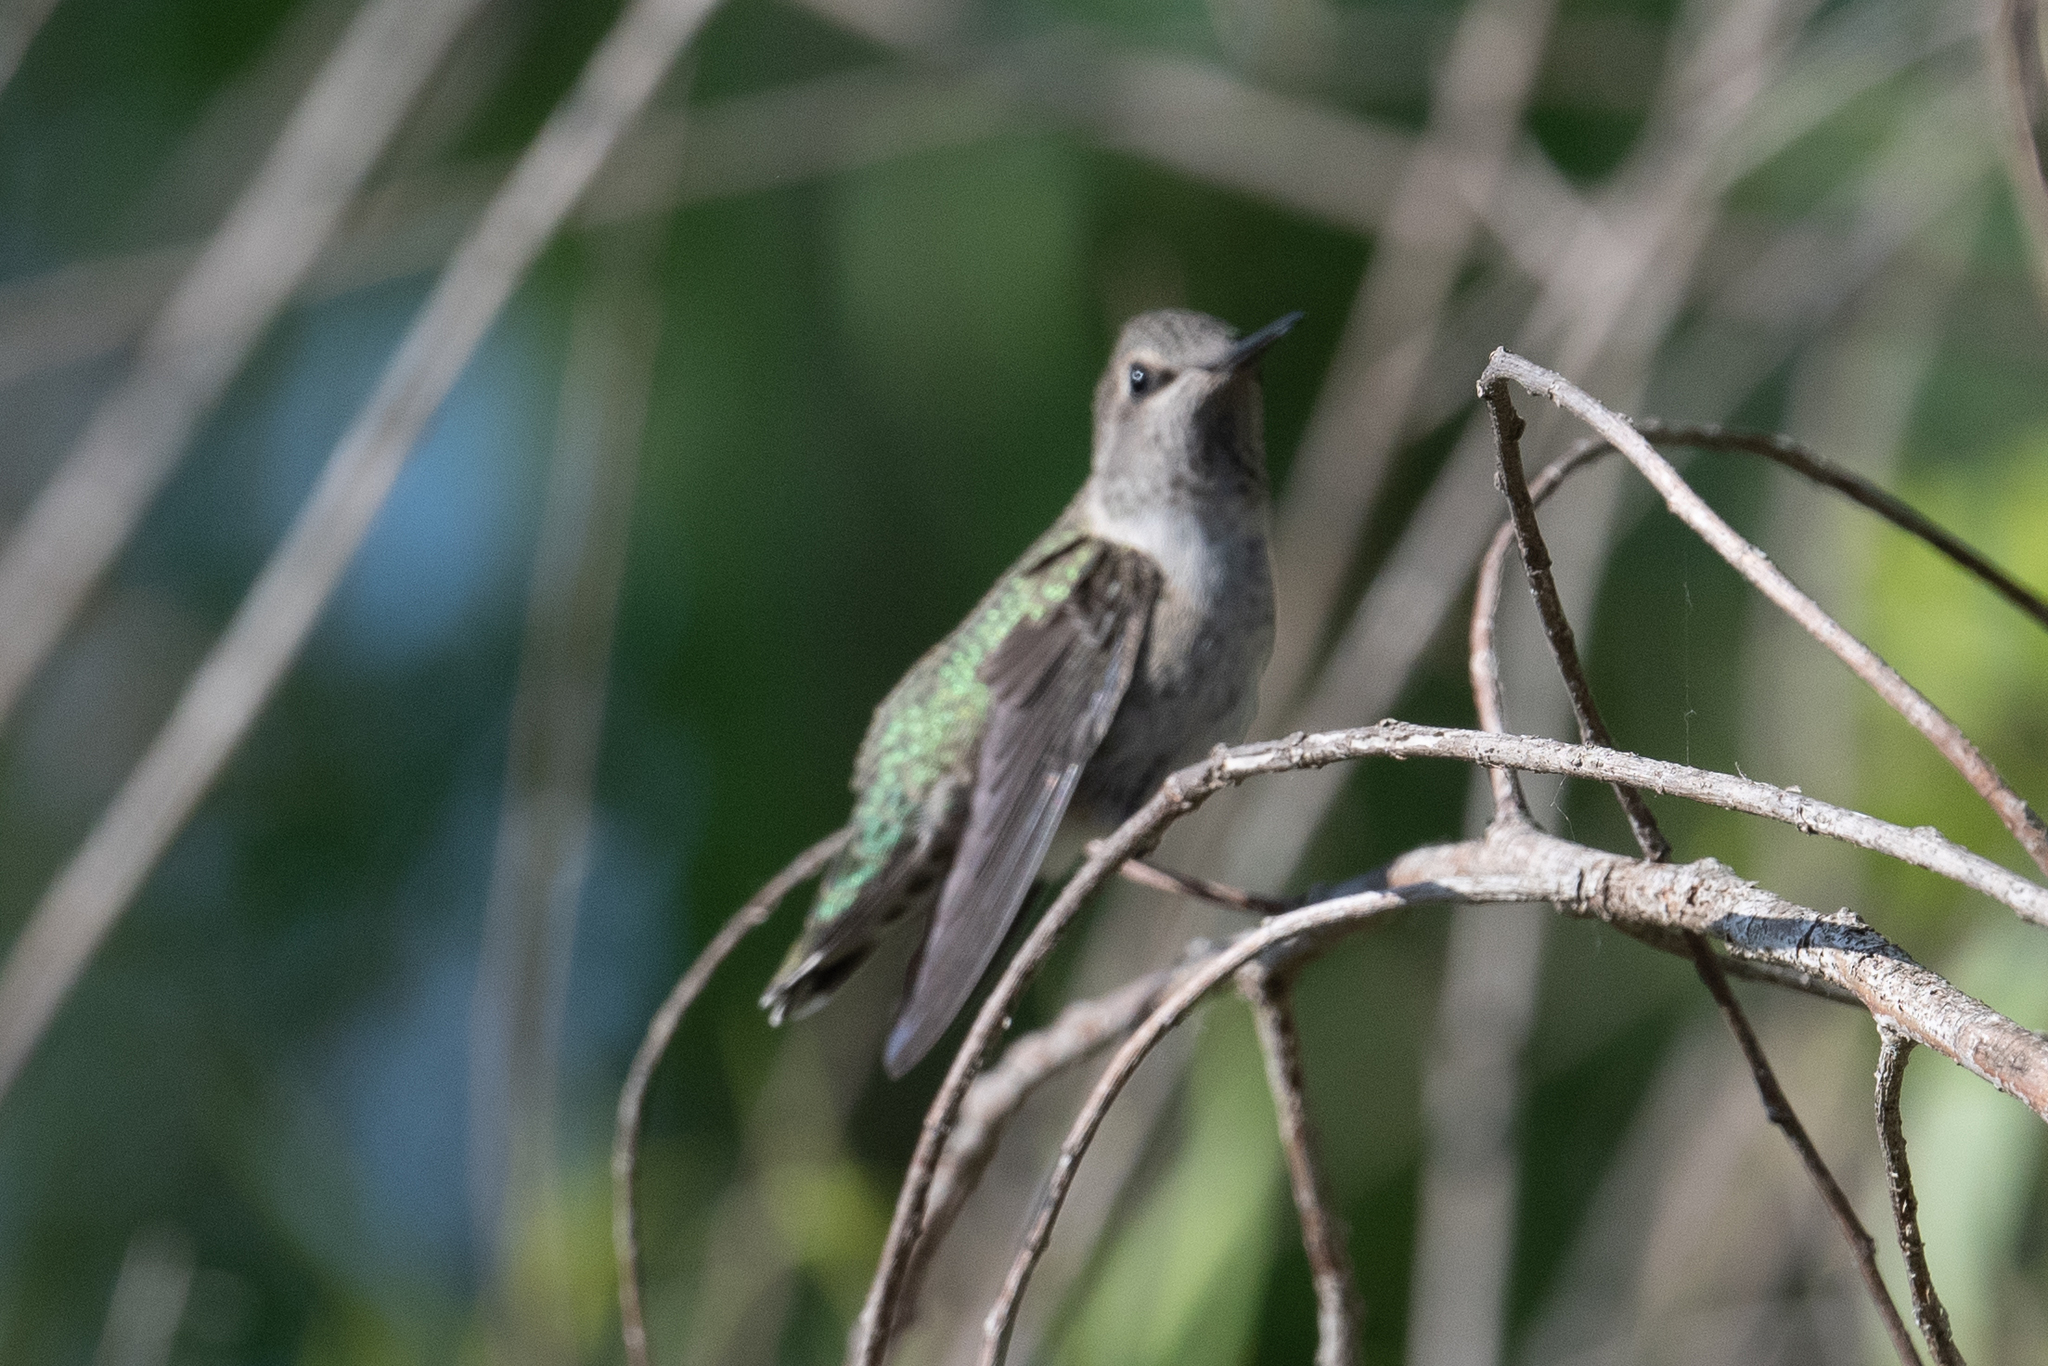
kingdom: Animalia
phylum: Chordata
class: Aves
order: Apodiformes
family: Trochilidae
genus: Calypte
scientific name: Calypte anna
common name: Anna's hummingbird
